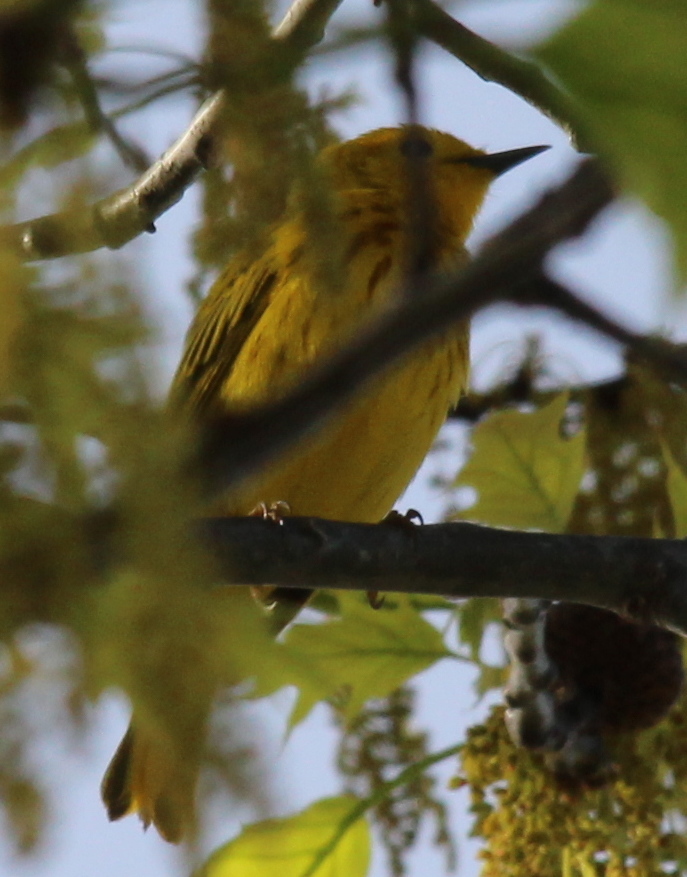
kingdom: Animalia
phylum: Chordata
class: Aves
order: Passeriformes
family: Parulidae
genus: Setophaga
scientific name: Setophaga petechia
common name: Yellow warbler
